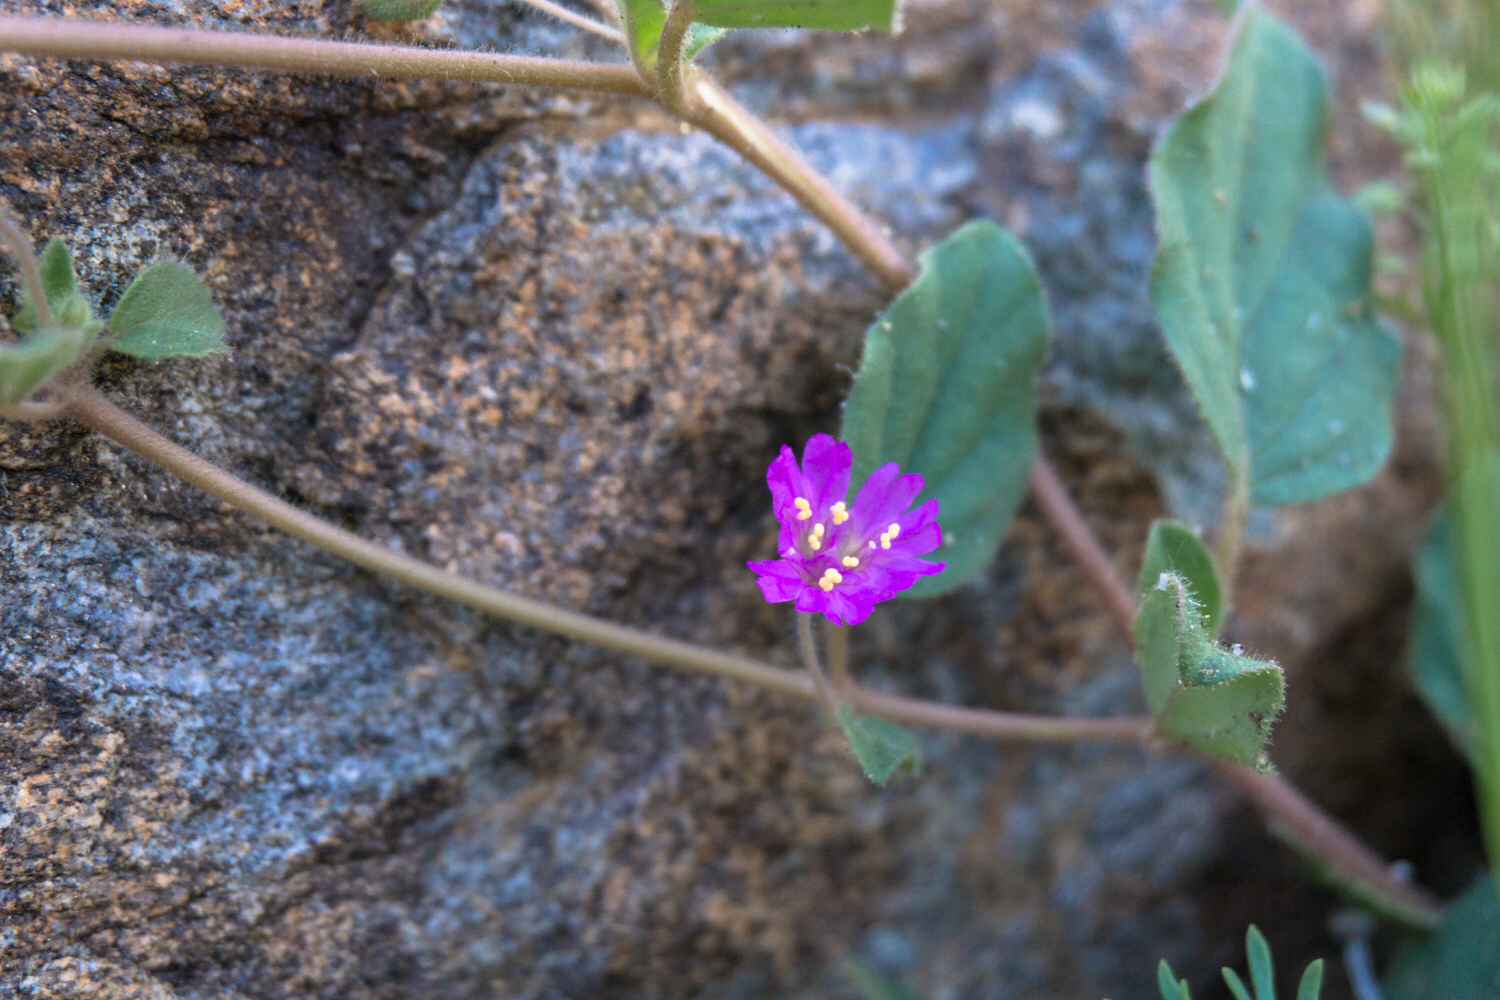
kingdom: Plantae
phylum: Tracheophyta
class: Magnoliopsida
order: Caryophyllales
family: Nyctaginaceae
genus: Allionia
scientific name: Allionia incarnata
